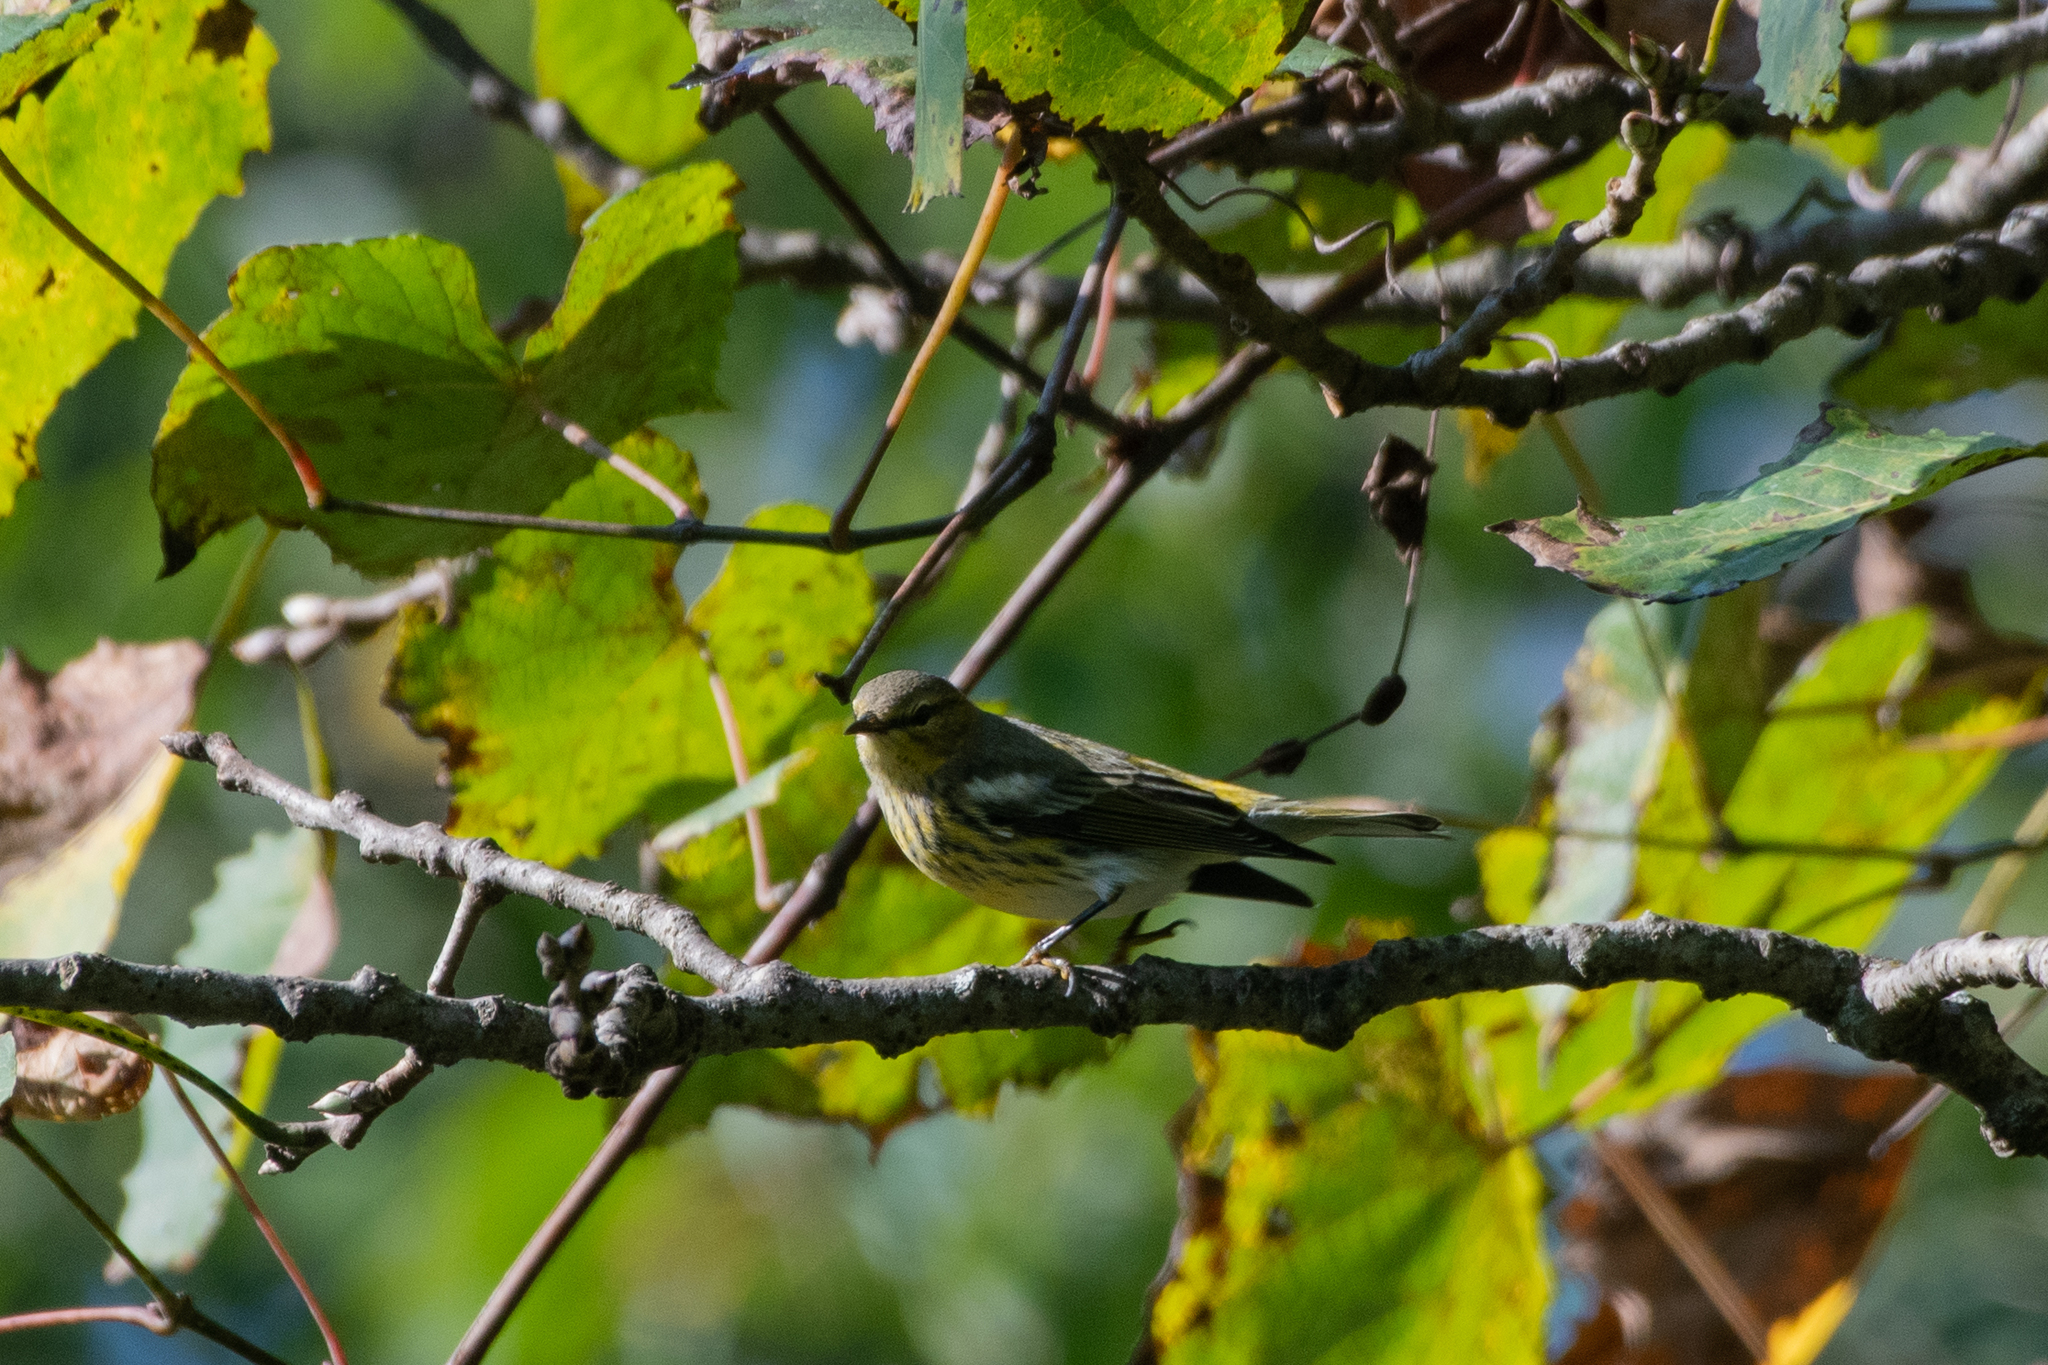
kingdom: Animalia
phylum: Chordata
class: Aves
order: Passeriformes
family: Parulidae
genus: Setophaga
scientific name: Setophaga tigrina
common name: Cape may warbler
